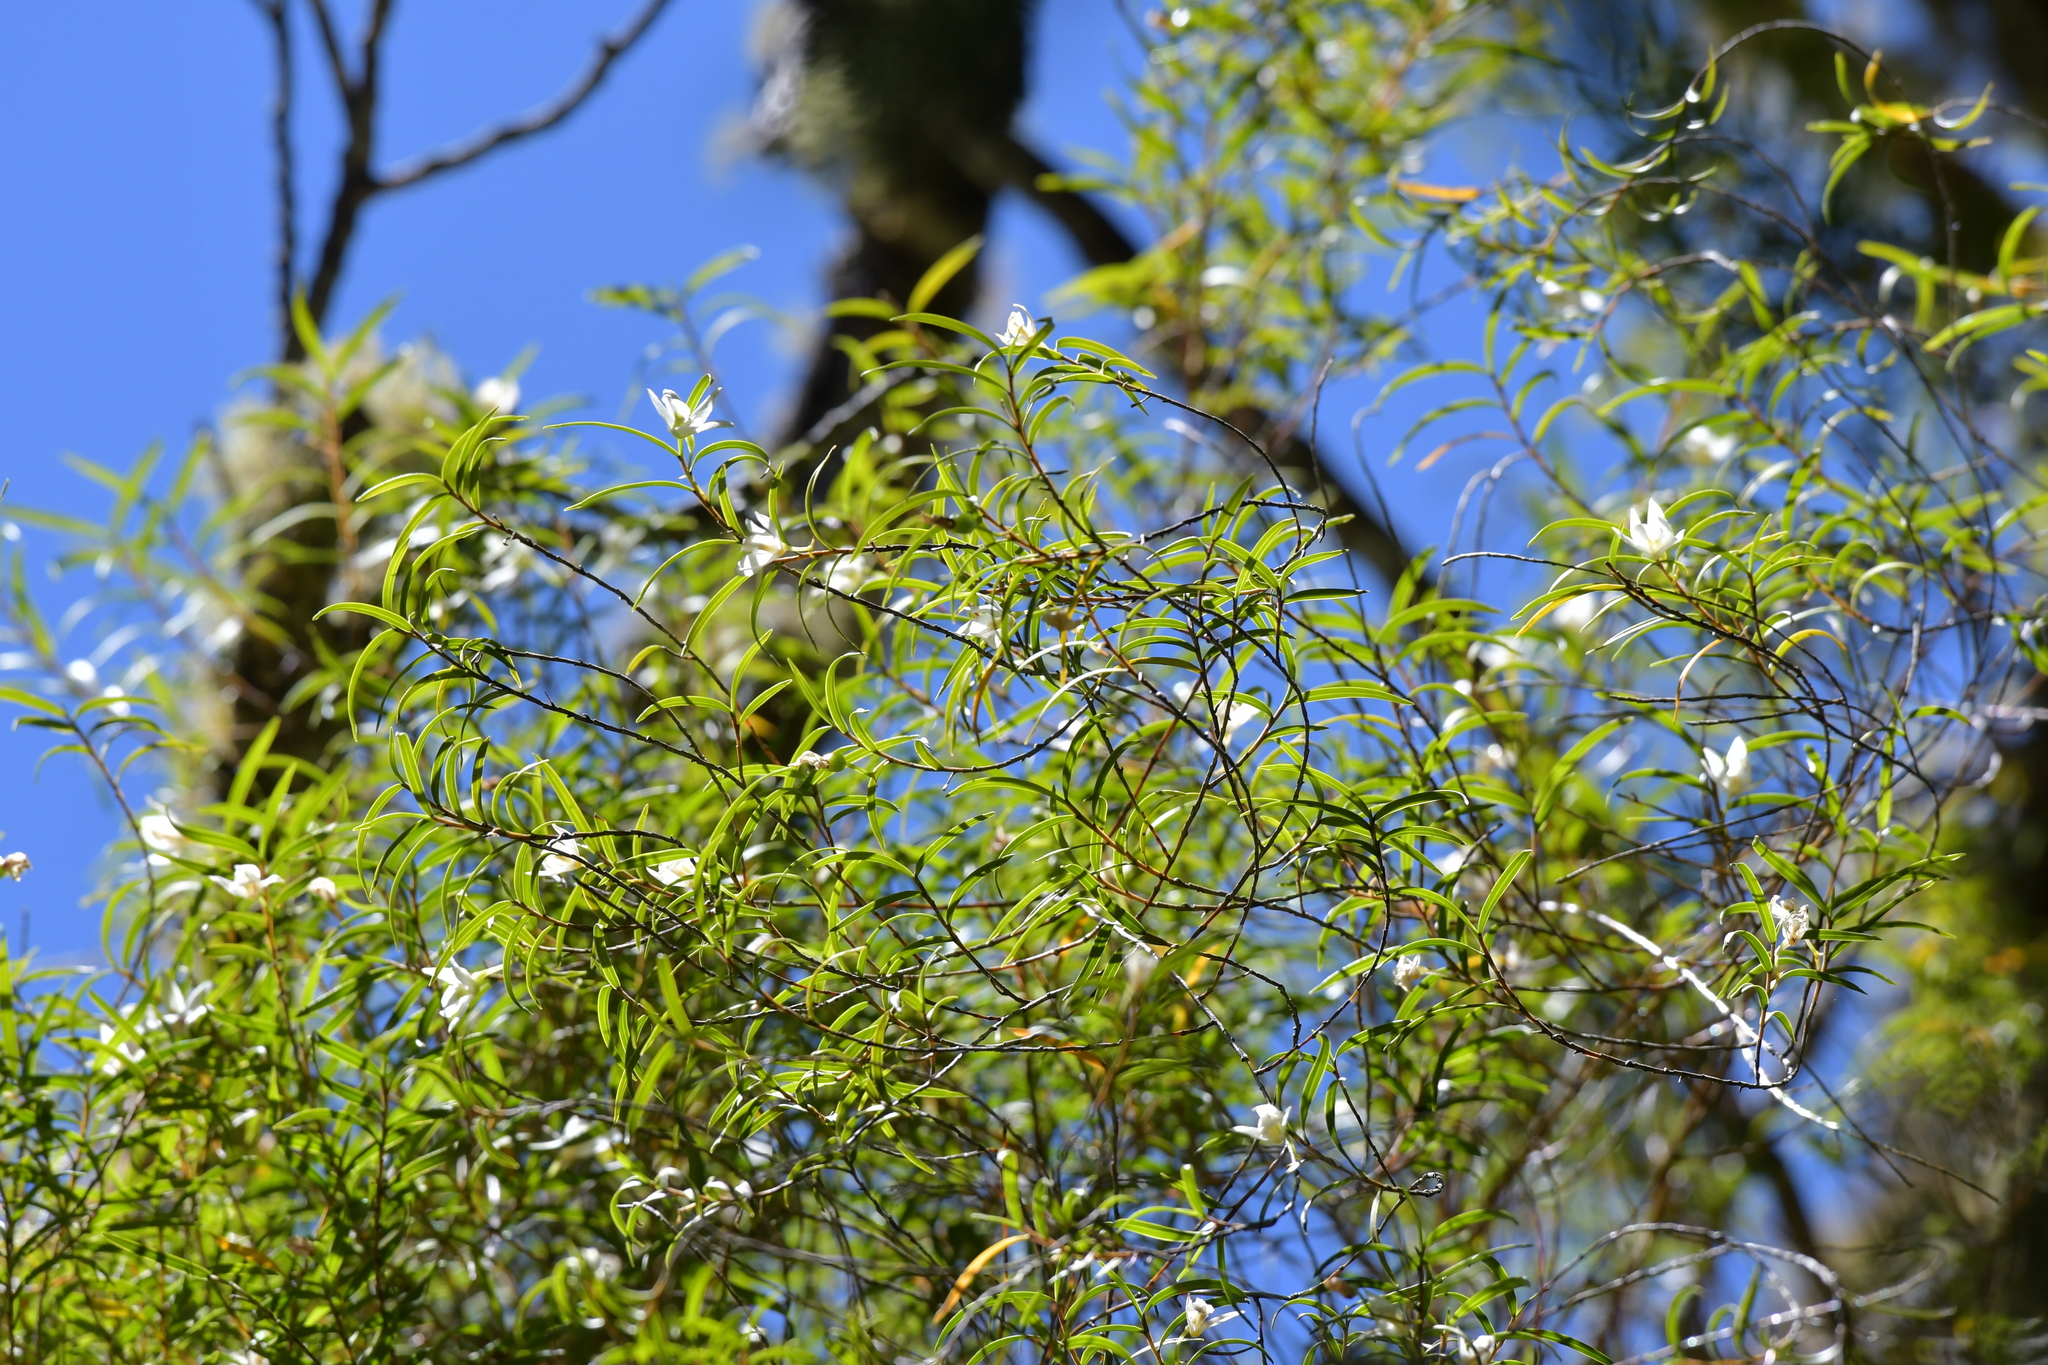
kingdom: Plantae
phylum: Tracheophyta
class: Liliopsida
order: Asparagales
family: Orchidaceae
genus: Dendrobium
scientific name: Dendrobium cunninghamii
